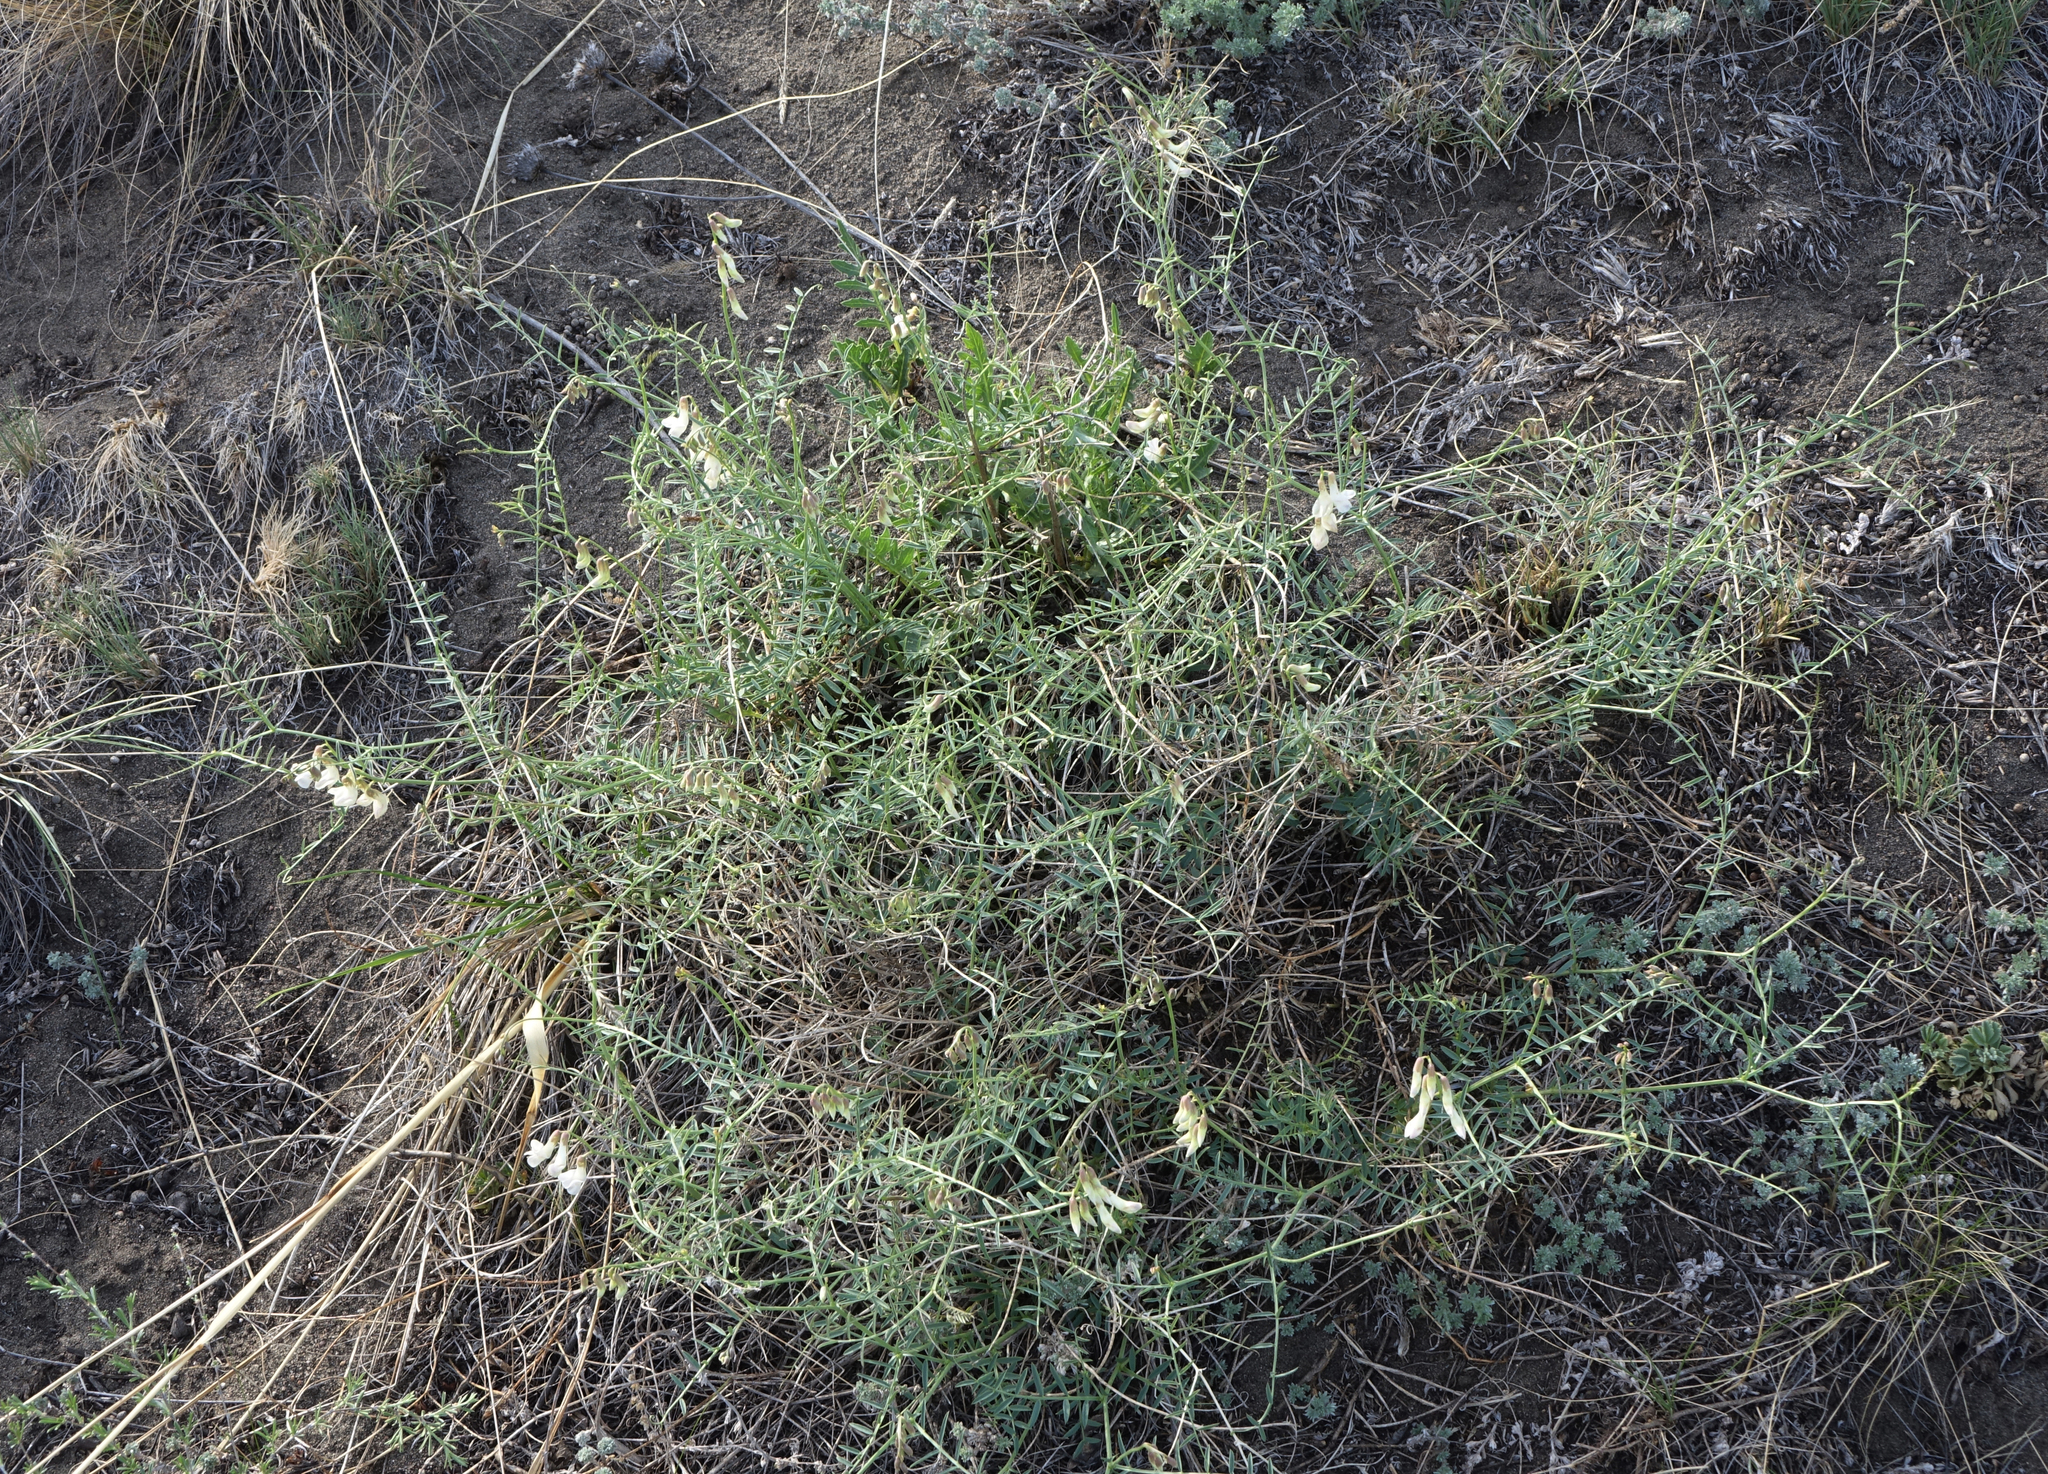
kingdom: Plantae
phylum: Tracheophyta
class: Magnoliopsida
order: Fabales
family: Fabaceae
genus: Vicia
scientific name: Vicia costata
